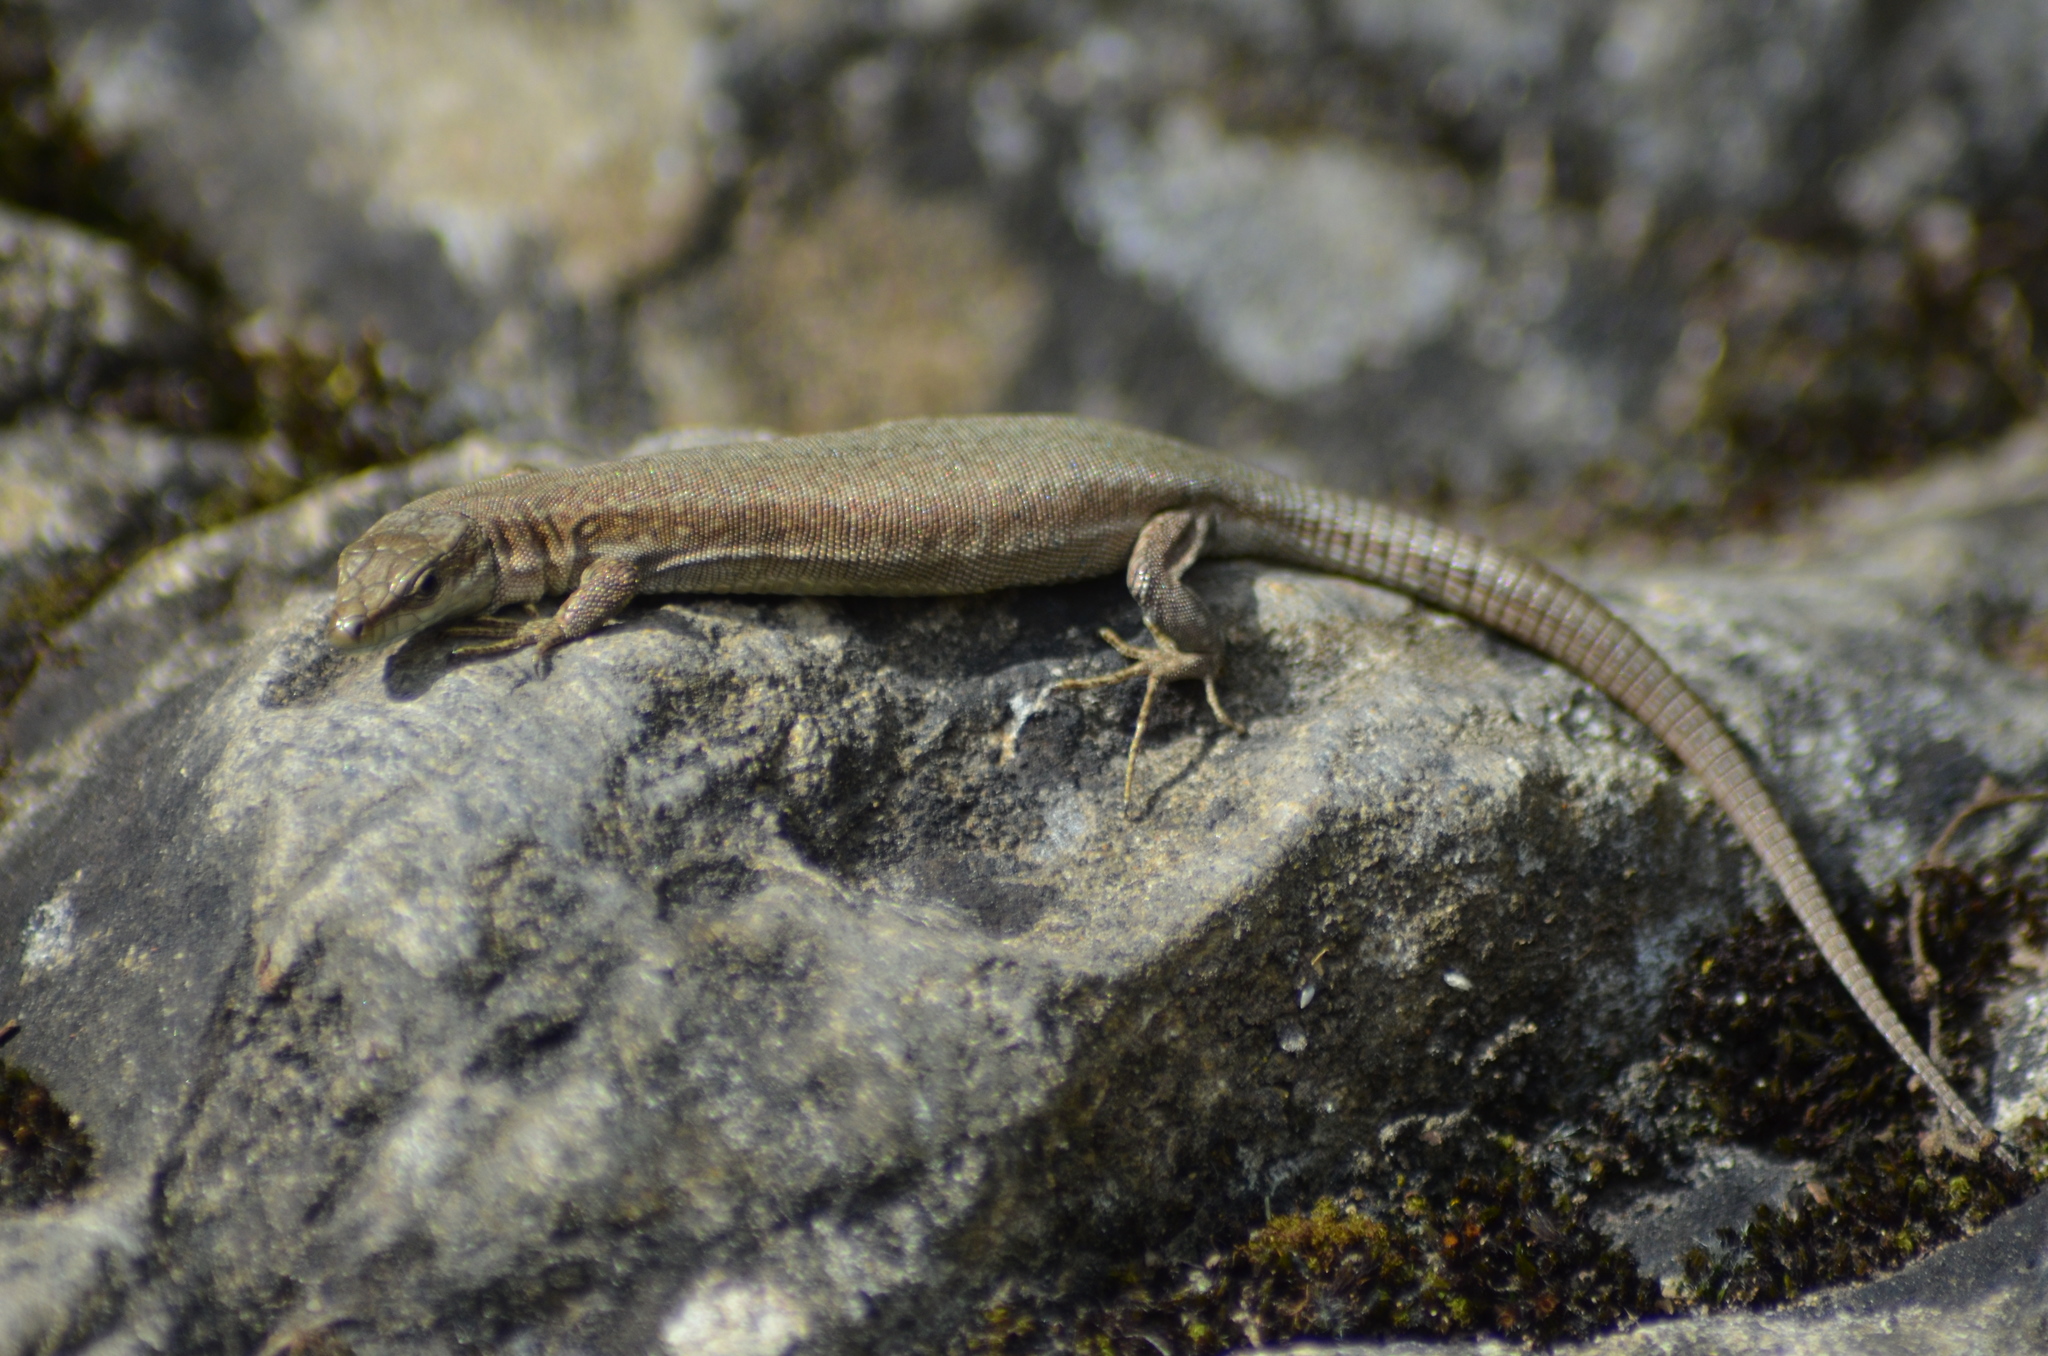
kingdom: Animalia
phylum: Chordata
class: Squamata
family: Lacertidae
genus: Podarcis
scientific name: Podarcis liolepis
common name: Catalonian wall lizard
